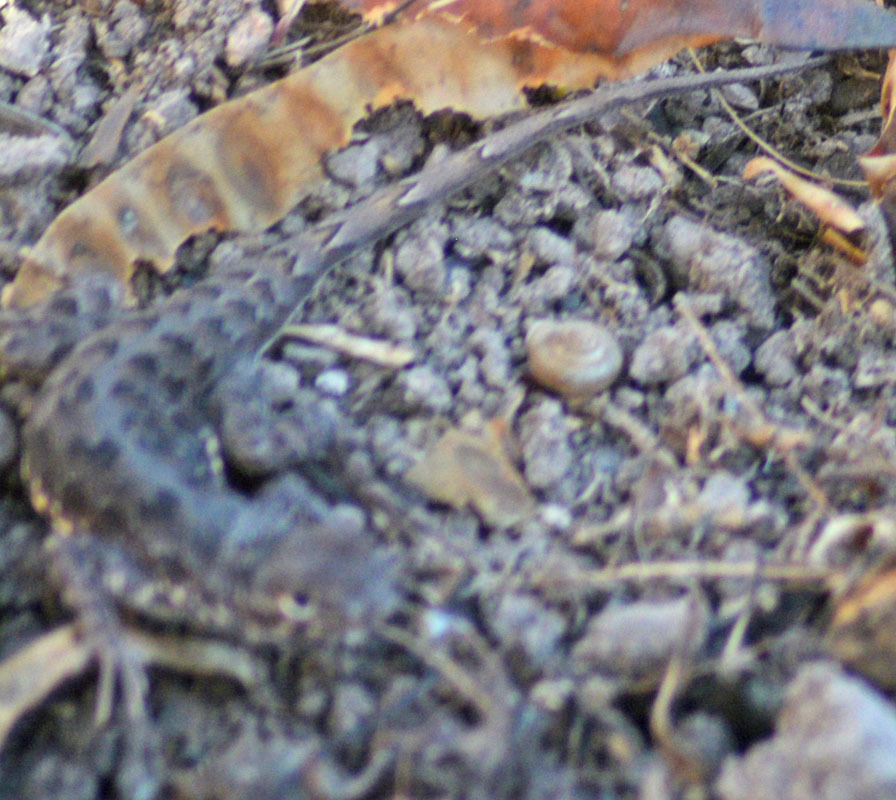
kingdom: Animalia
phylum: Chordata
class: Squamata
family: Phrynosomatidae
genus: Holbrookia
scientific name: Holbrookia elegans
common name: Elegant earless lizard
